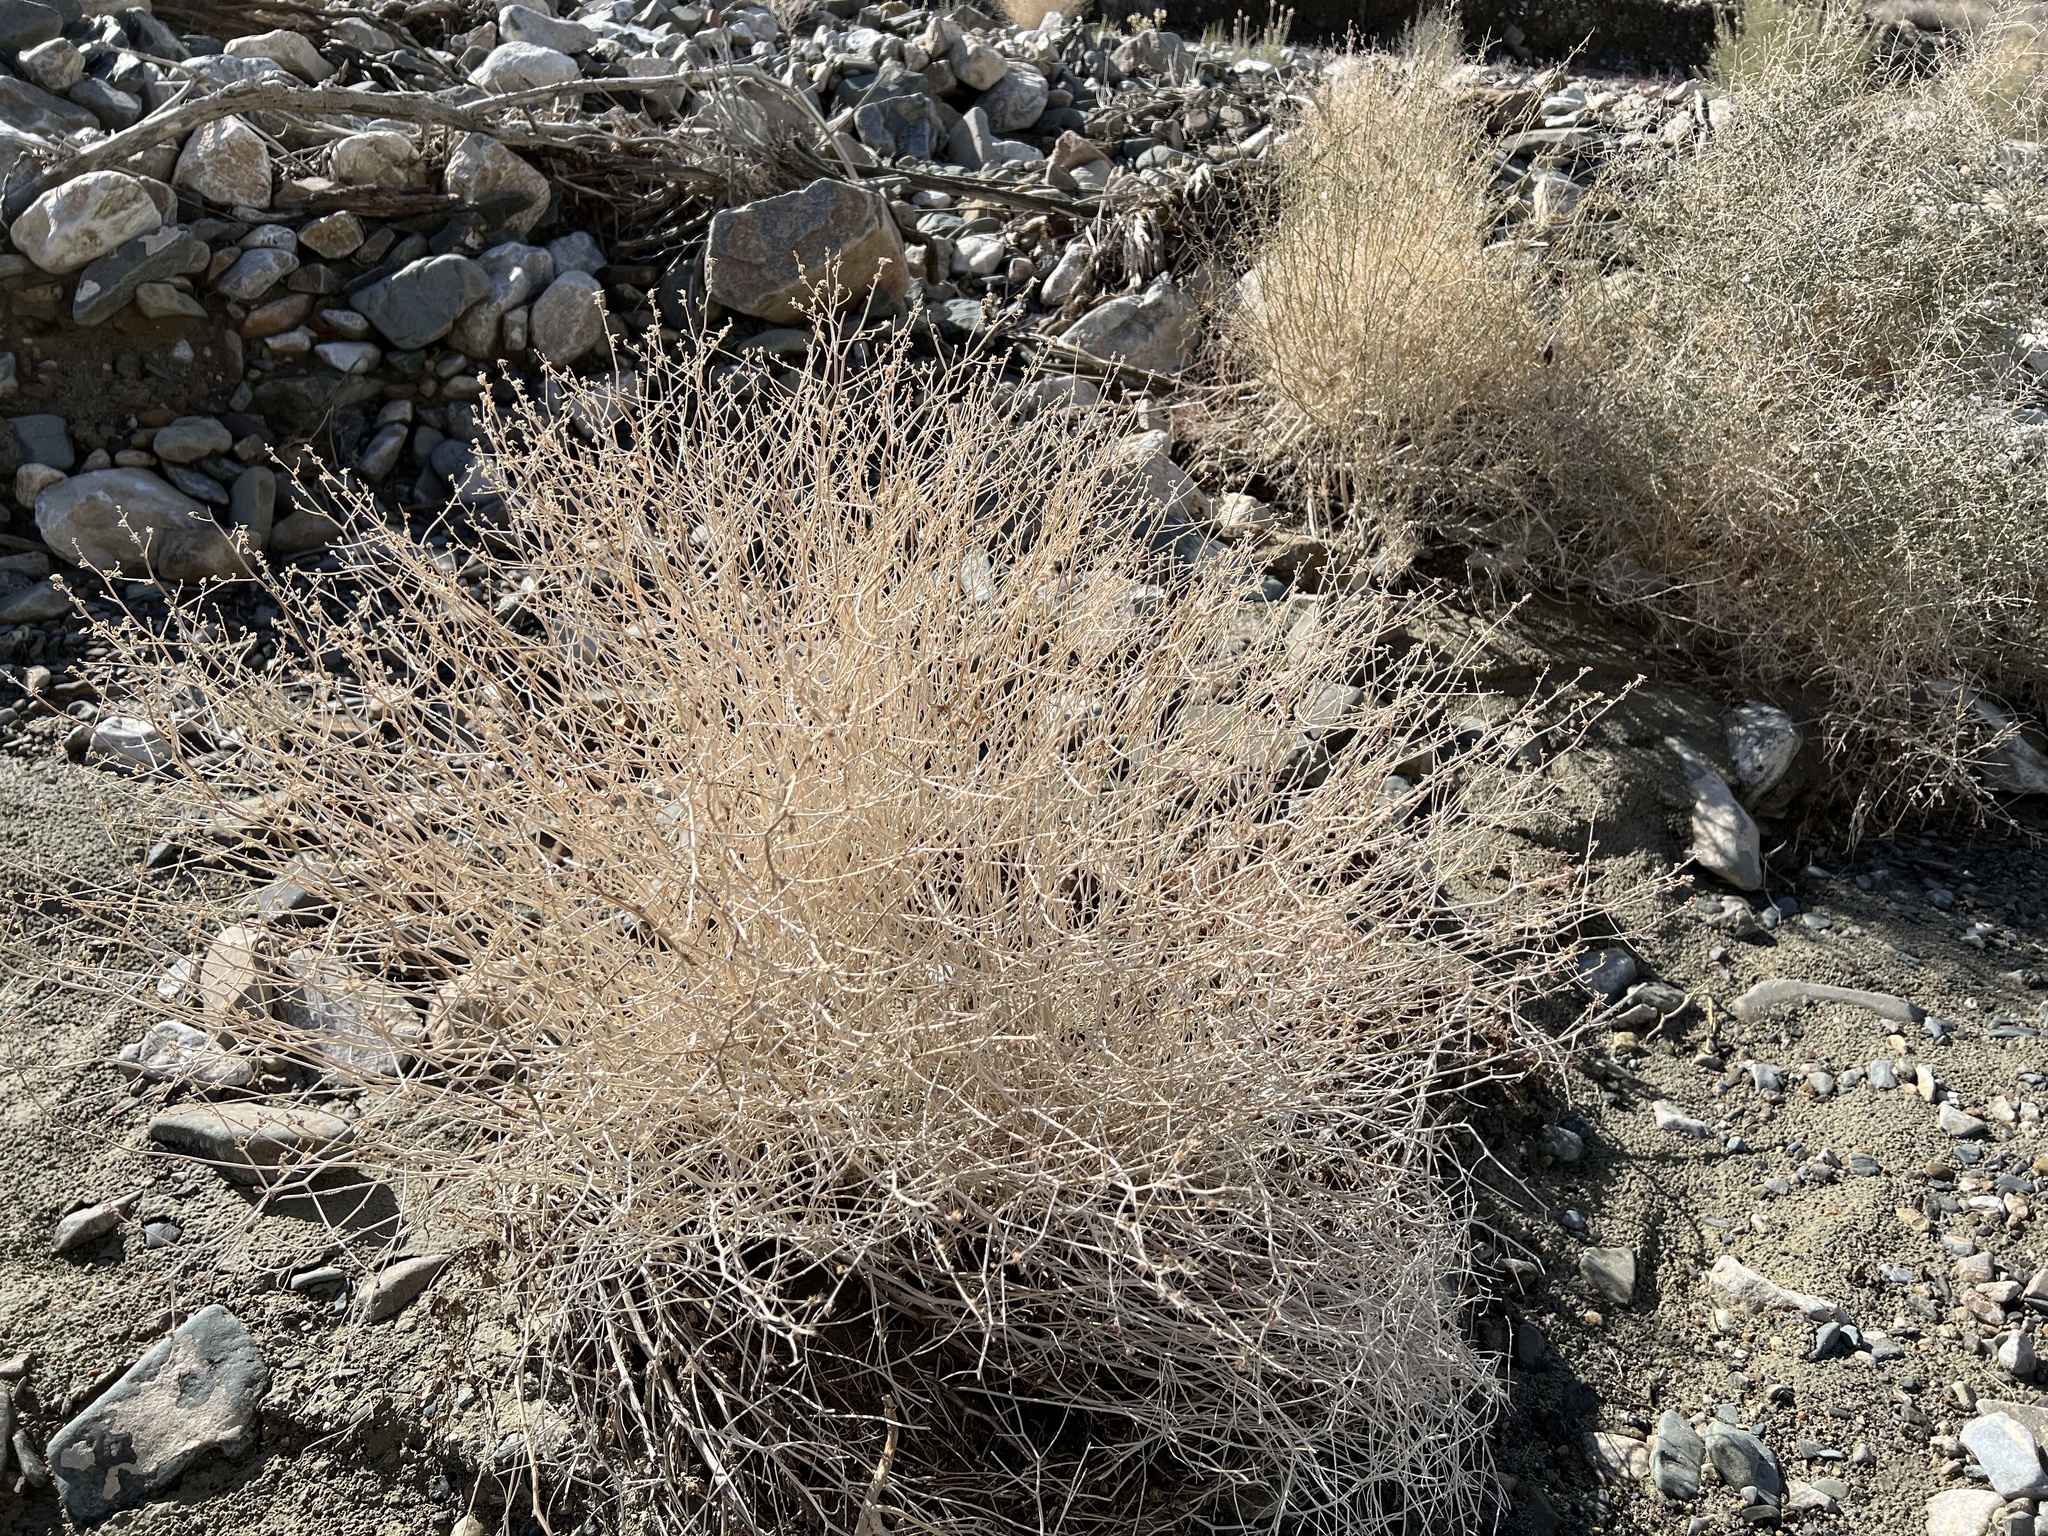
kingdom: Plantae
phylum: Tracheophyta
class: Magnoliopsida
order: Asterales
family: Asteraceae
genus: Stephanomeria
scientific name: Stephanomeria pauciflora
